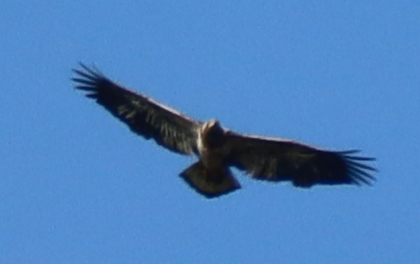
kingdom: Animalia
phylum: Chordata
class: Aves
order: Accipitriformes
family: Accipitridae
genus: Haliaeetus
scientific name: Haliaeetus leucocephalus
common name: Bald eagle
